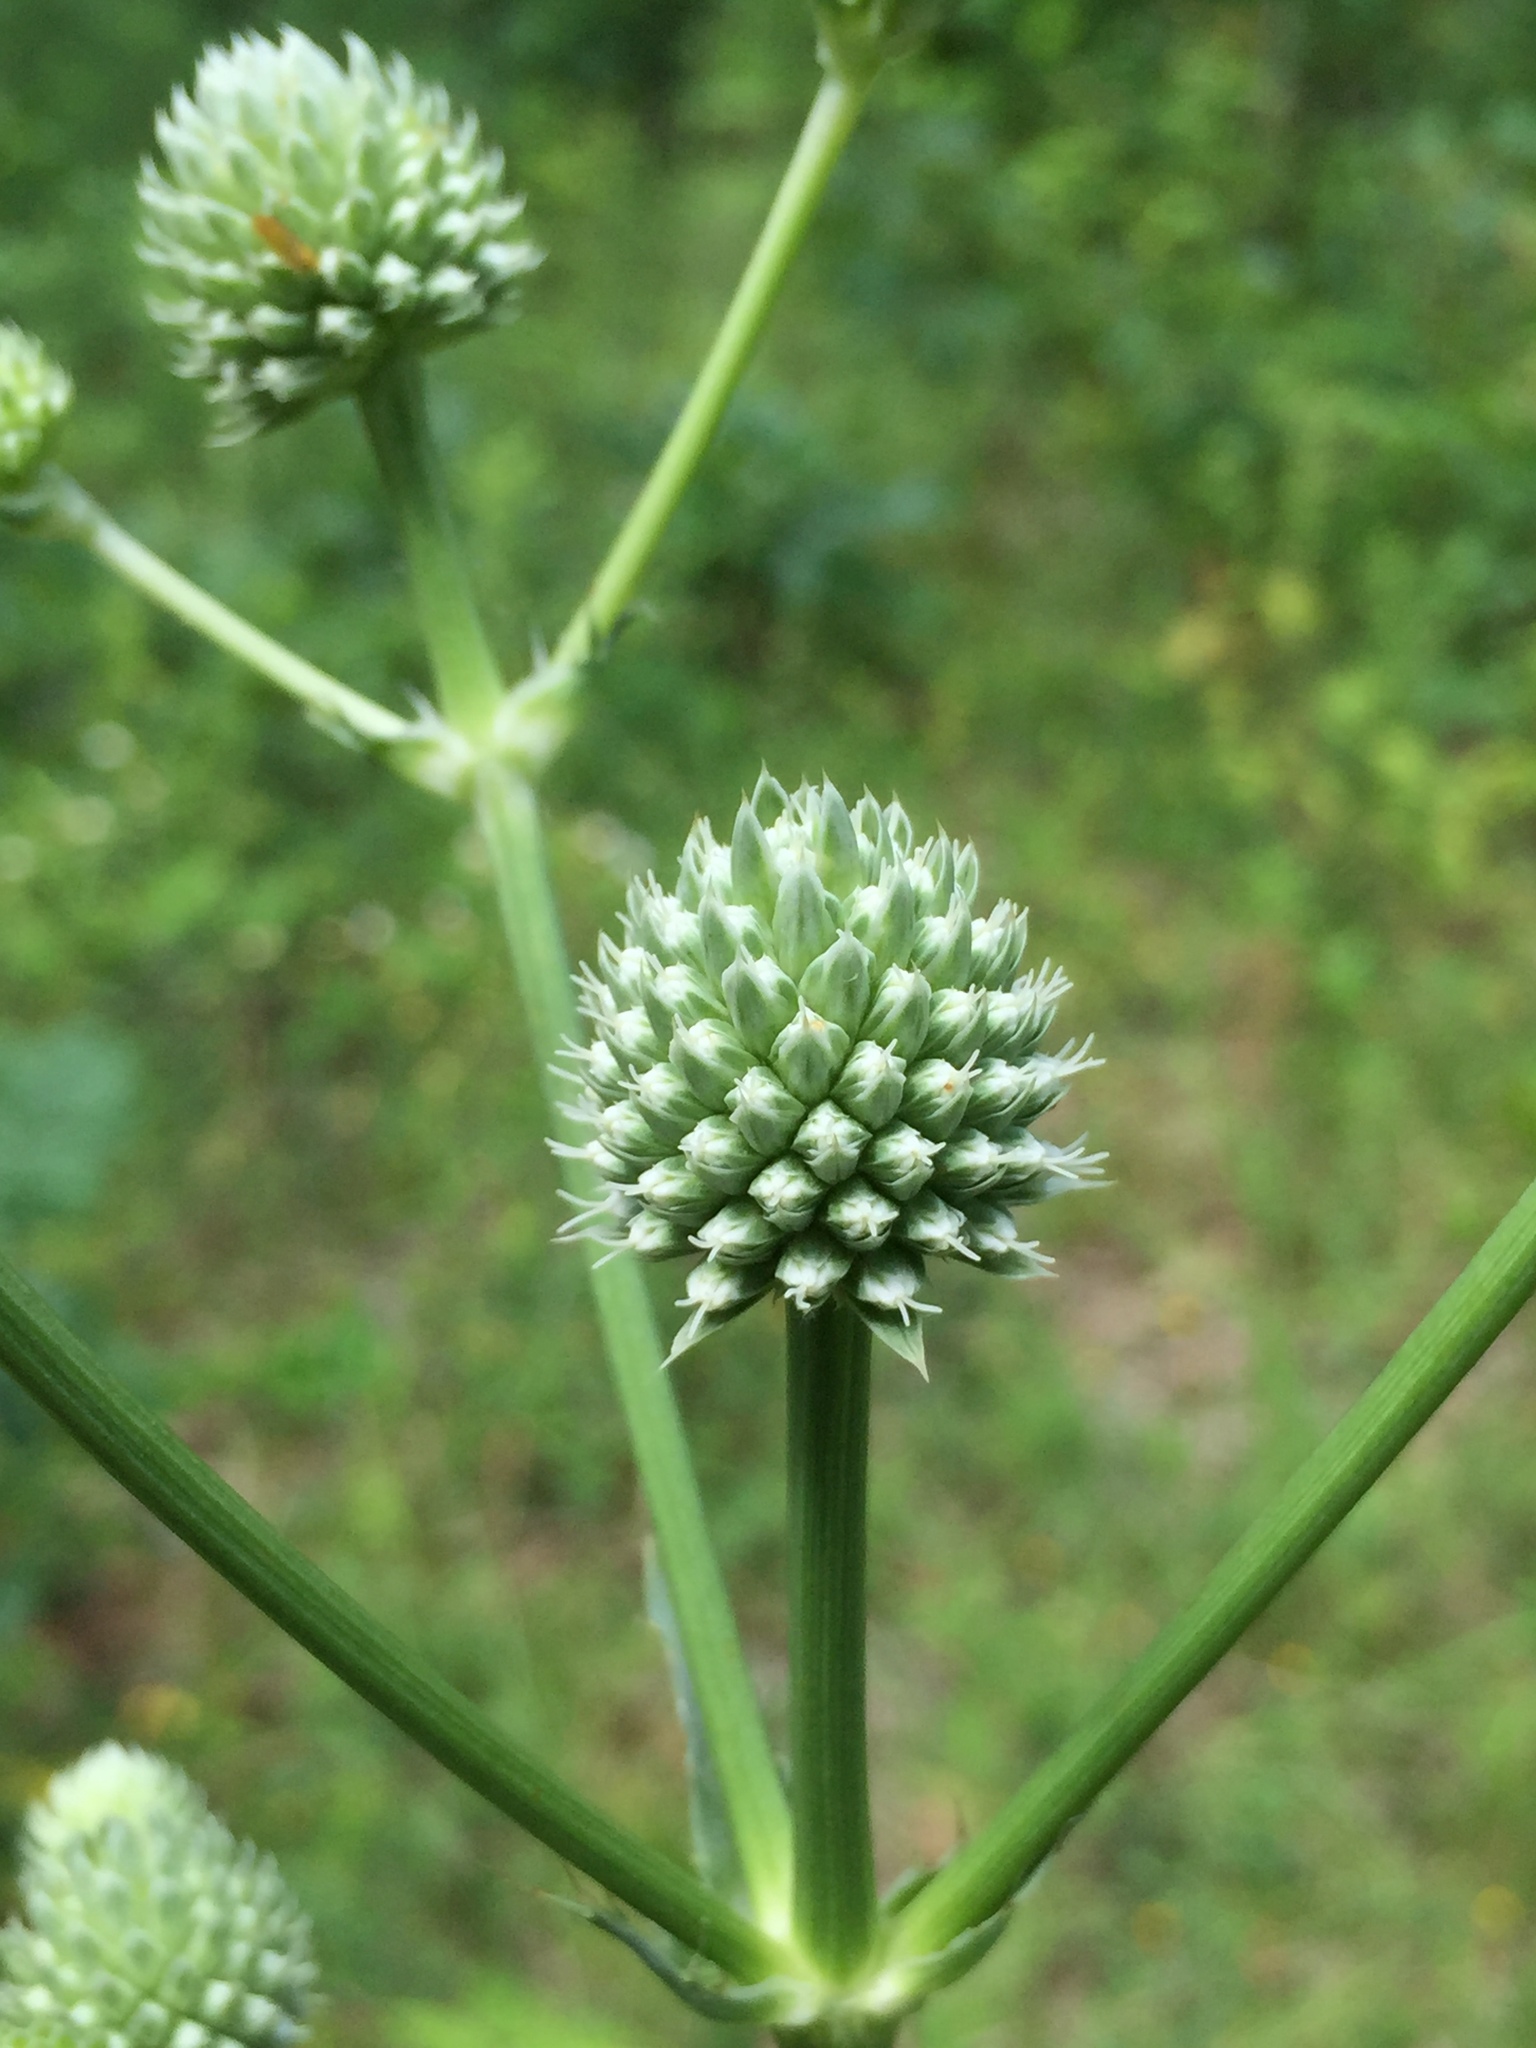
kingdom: Plantae
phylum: Tracheophyta
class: Magnoliopsida
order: Apiales
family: Apiaceae
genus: Eryngium
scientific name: Eryngium yuccifolium
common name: Button eryngo
